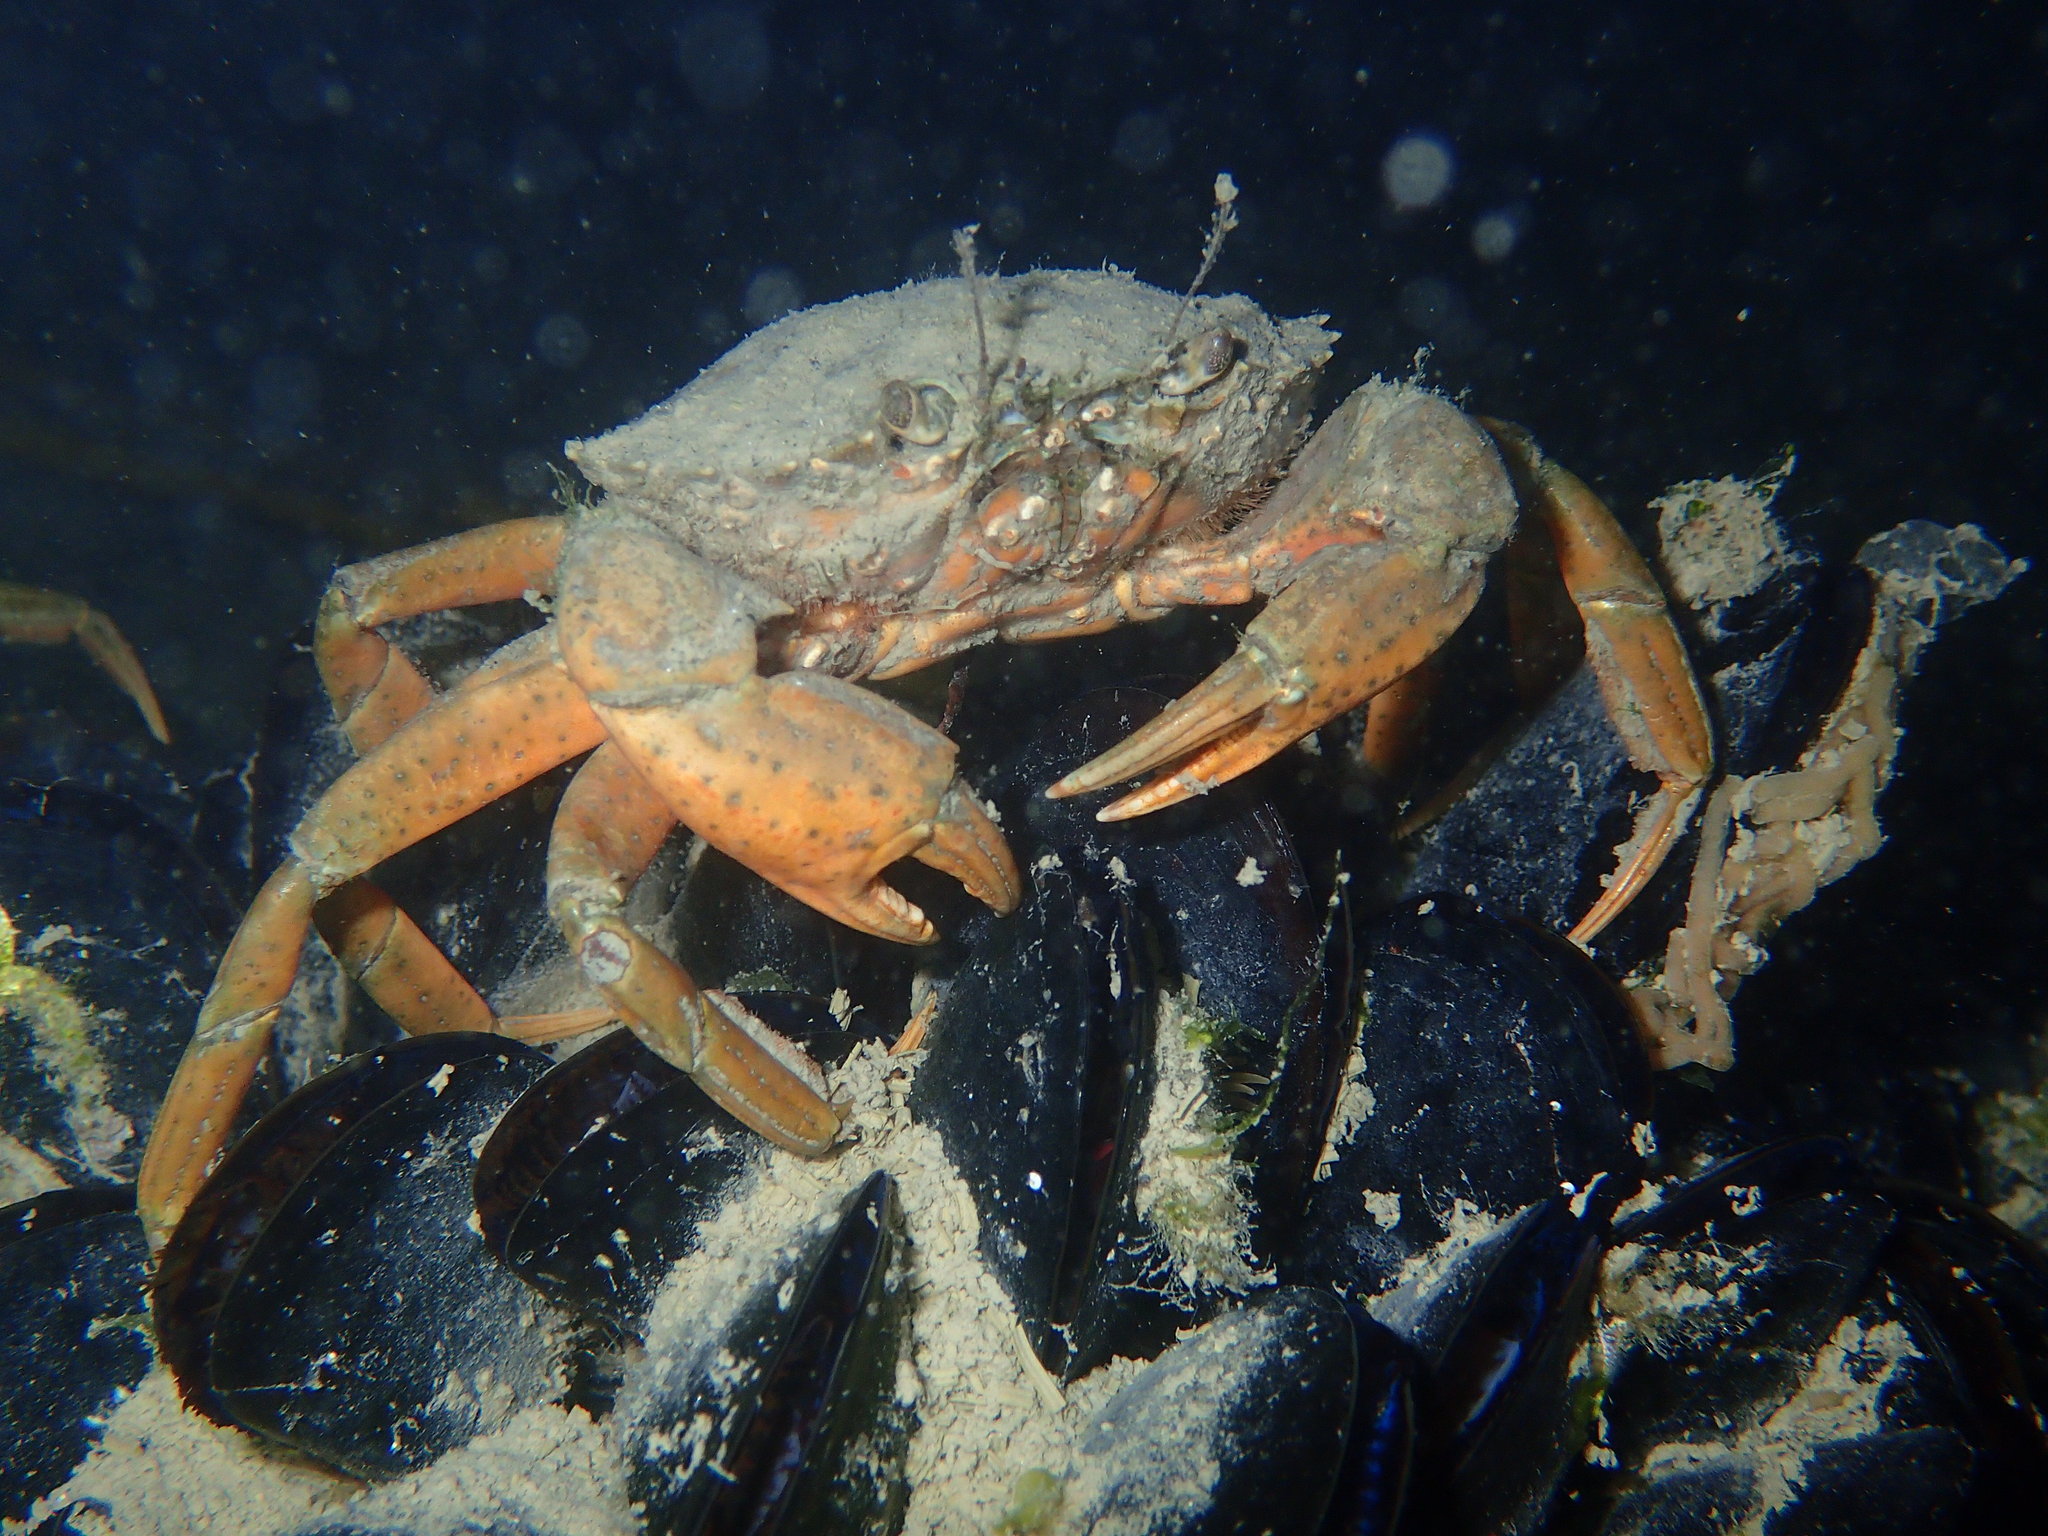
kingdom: Animalia
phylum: Arthropoda
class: Malacostraca
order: Decapoda
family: Carcinidae
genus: Carcinus
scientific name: Carcinus aestuarii
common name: Mediterranean green crab
